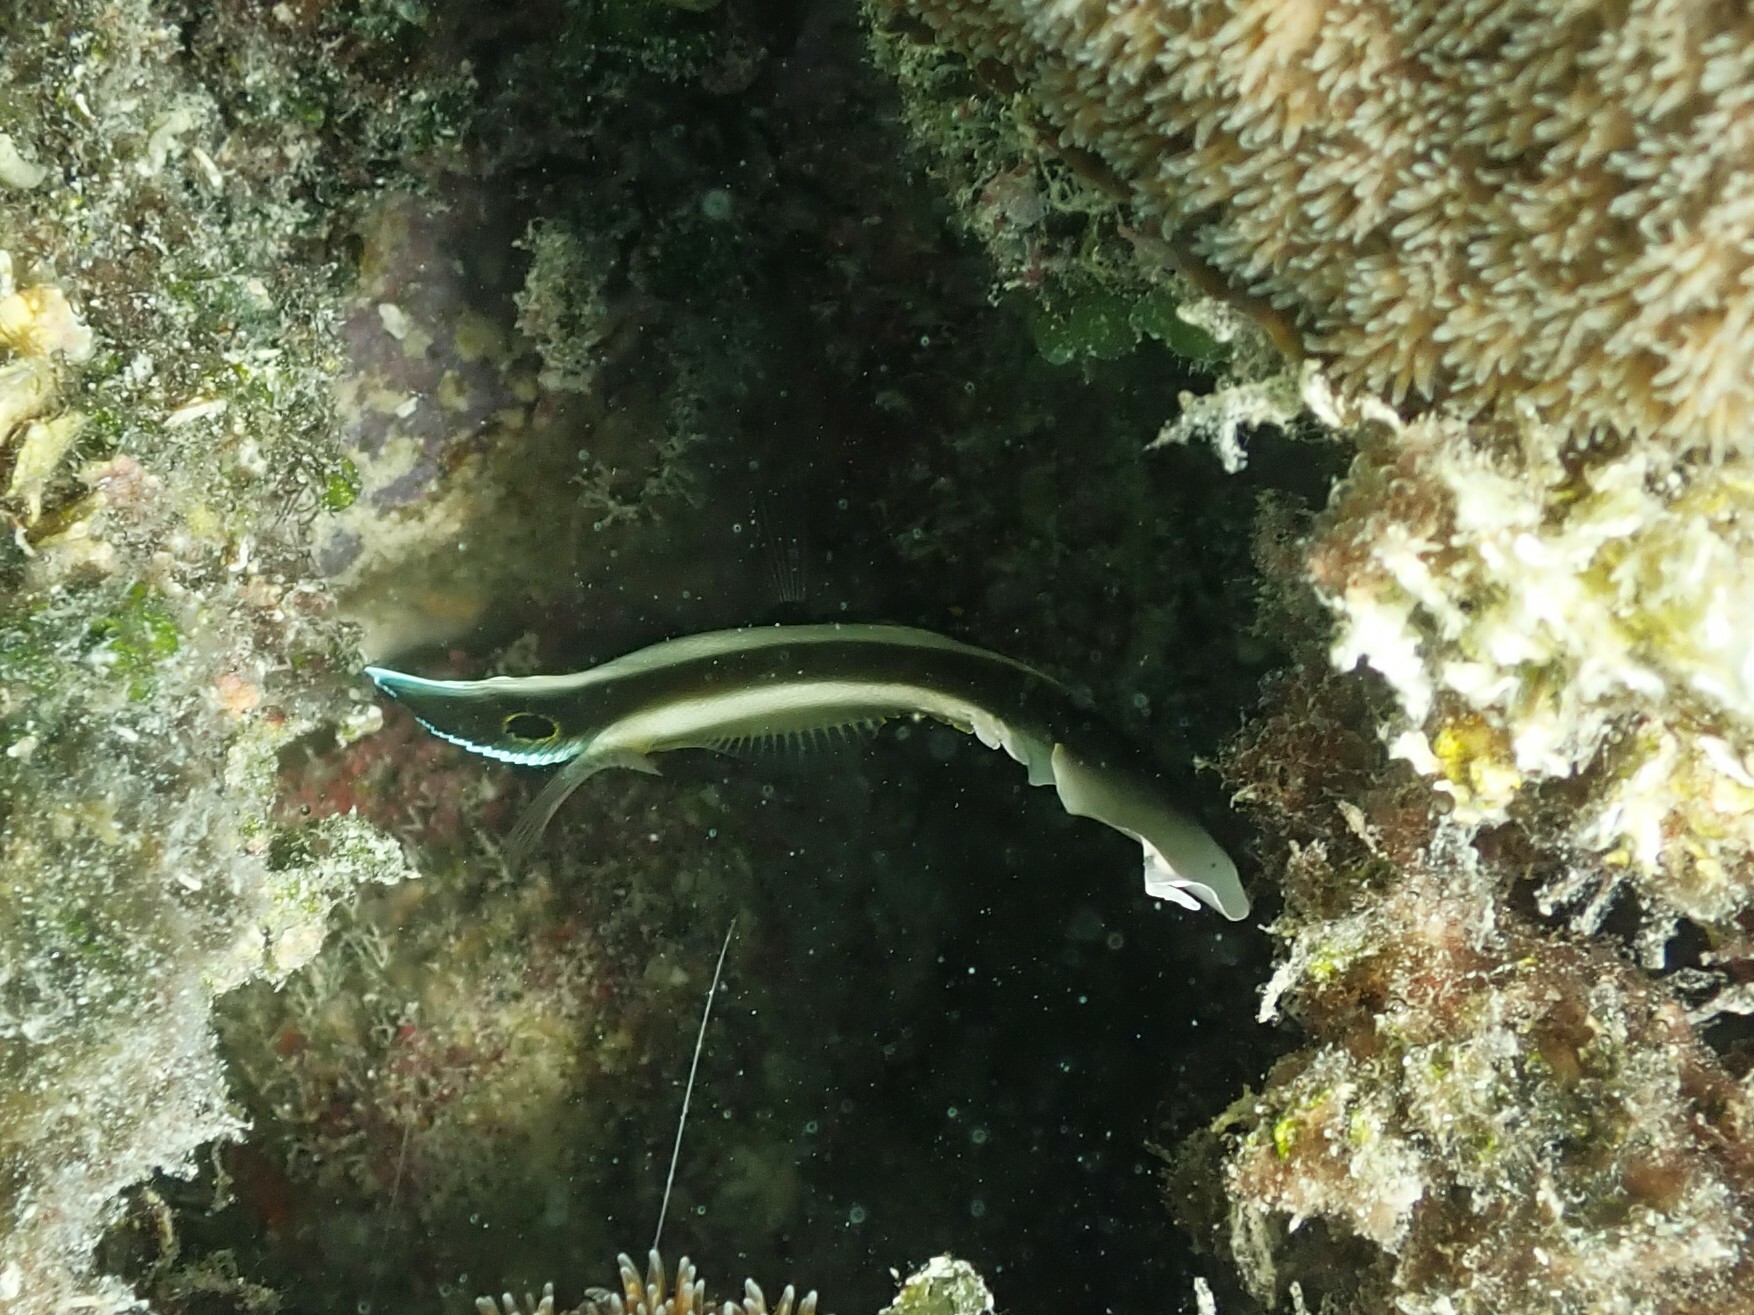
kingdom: Animalia
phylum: Chordata
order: Perciformes
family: Chaetodontidae
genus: Heniochus
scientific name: Heniochus chrysostomus
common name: Horned bannerfish
